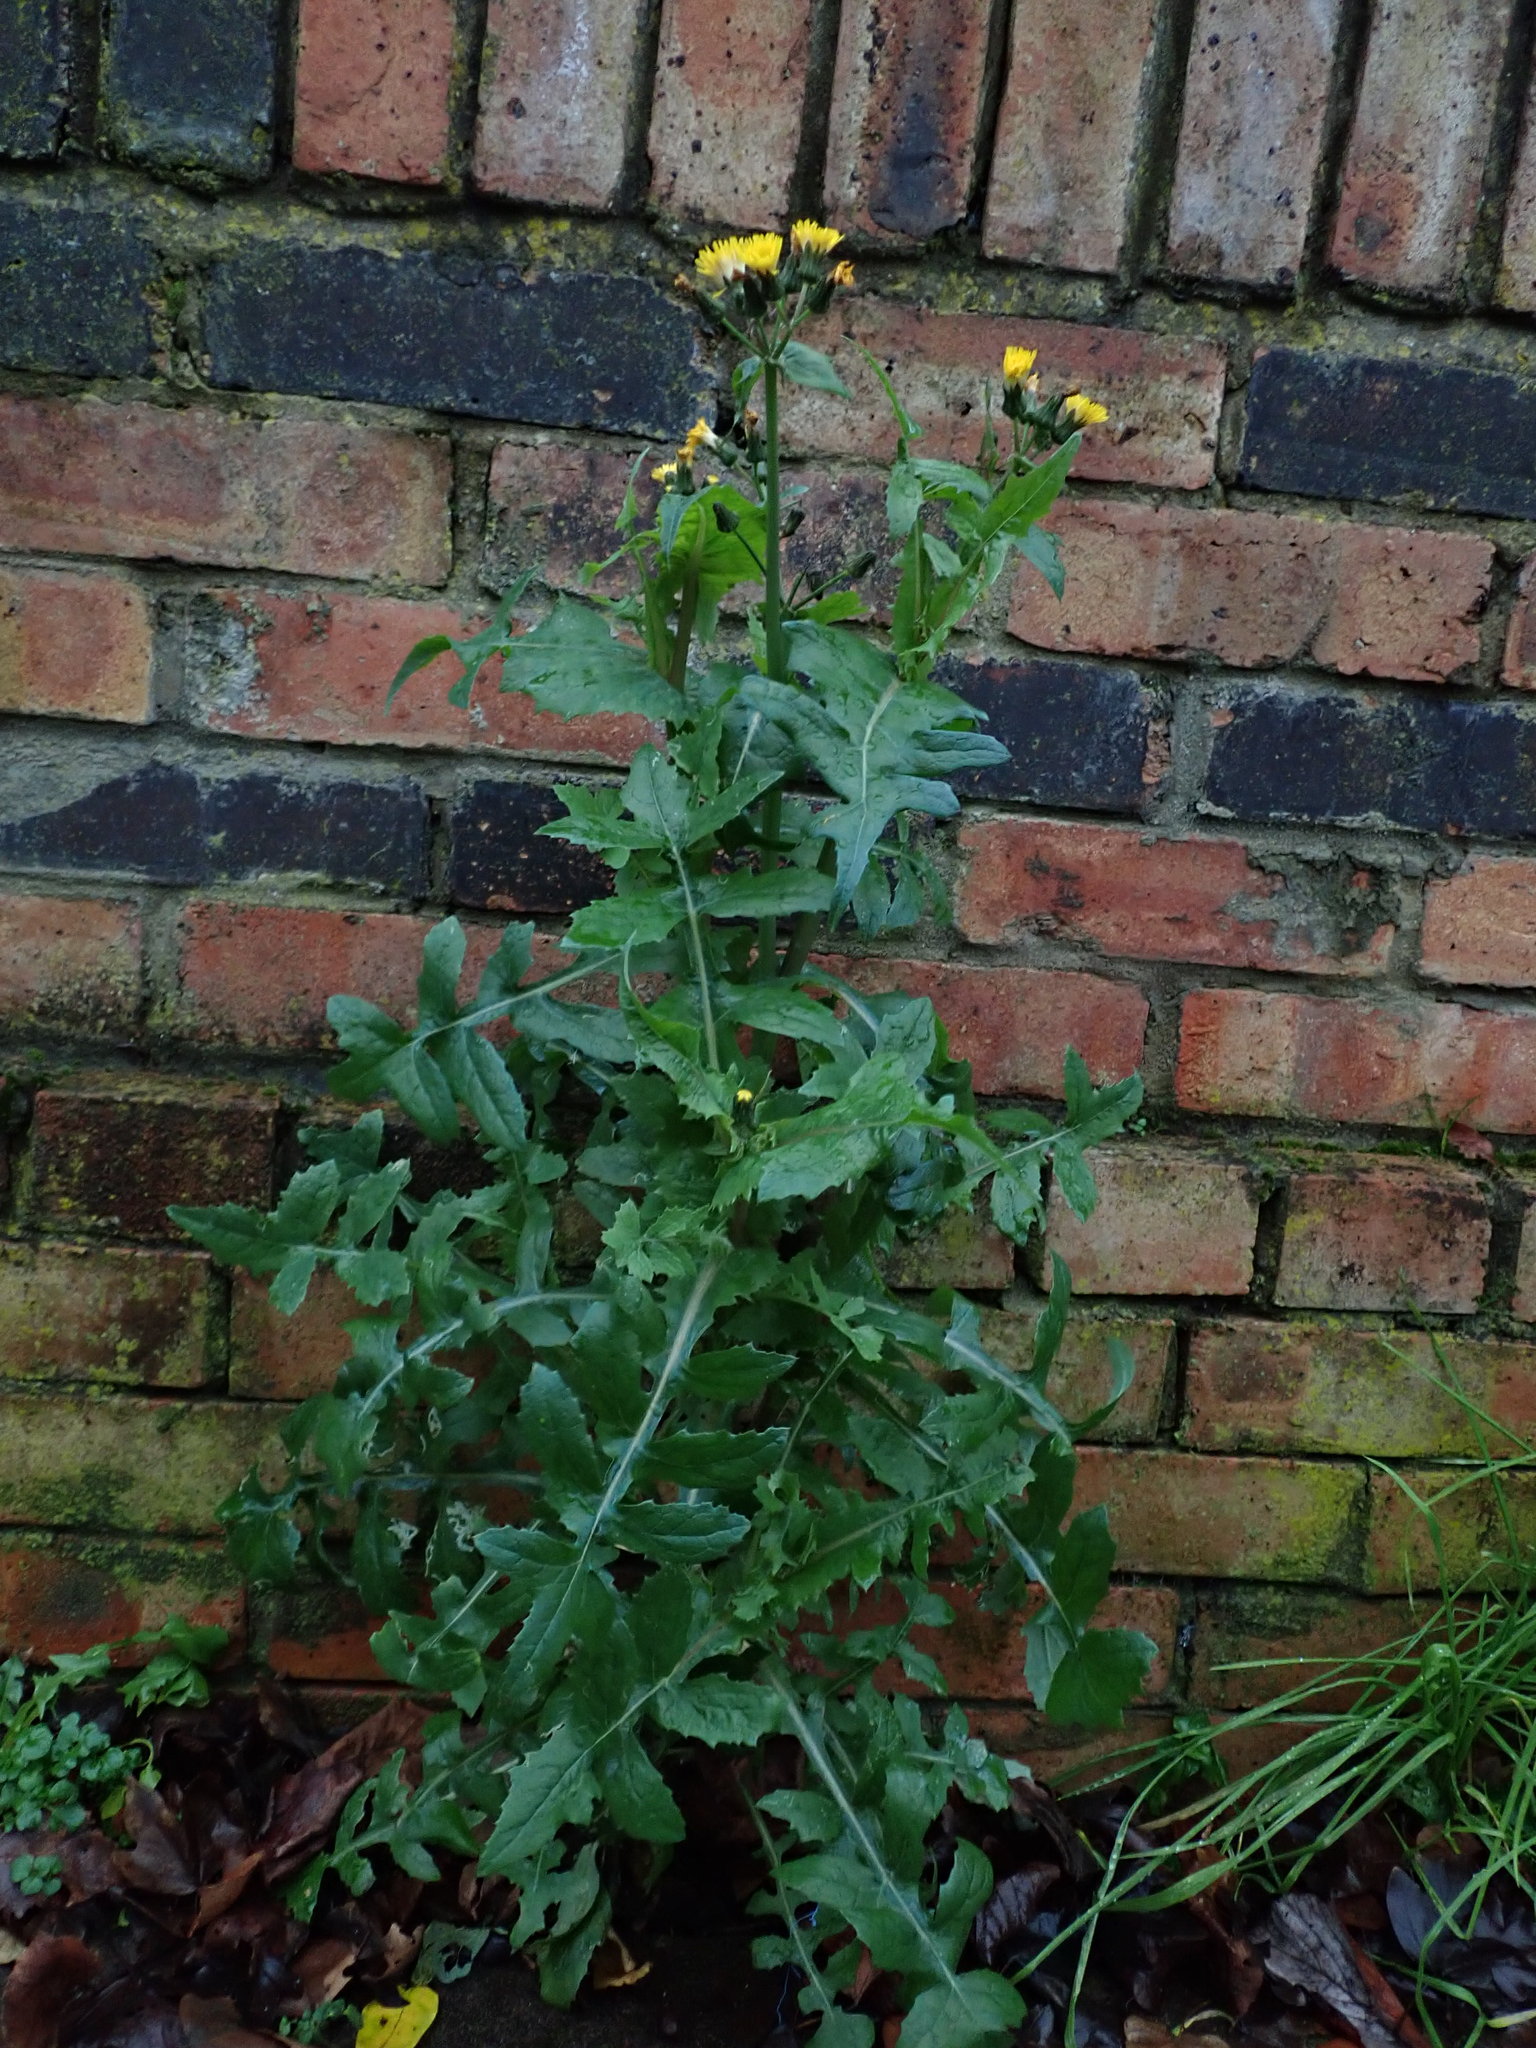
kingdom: Plantae
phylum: Tracheophyta
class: Magnoliopsida
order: Asterales
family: Asteraceae
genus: Sonchus
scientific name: Sonchus oleraceus
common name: Common sowthistle
